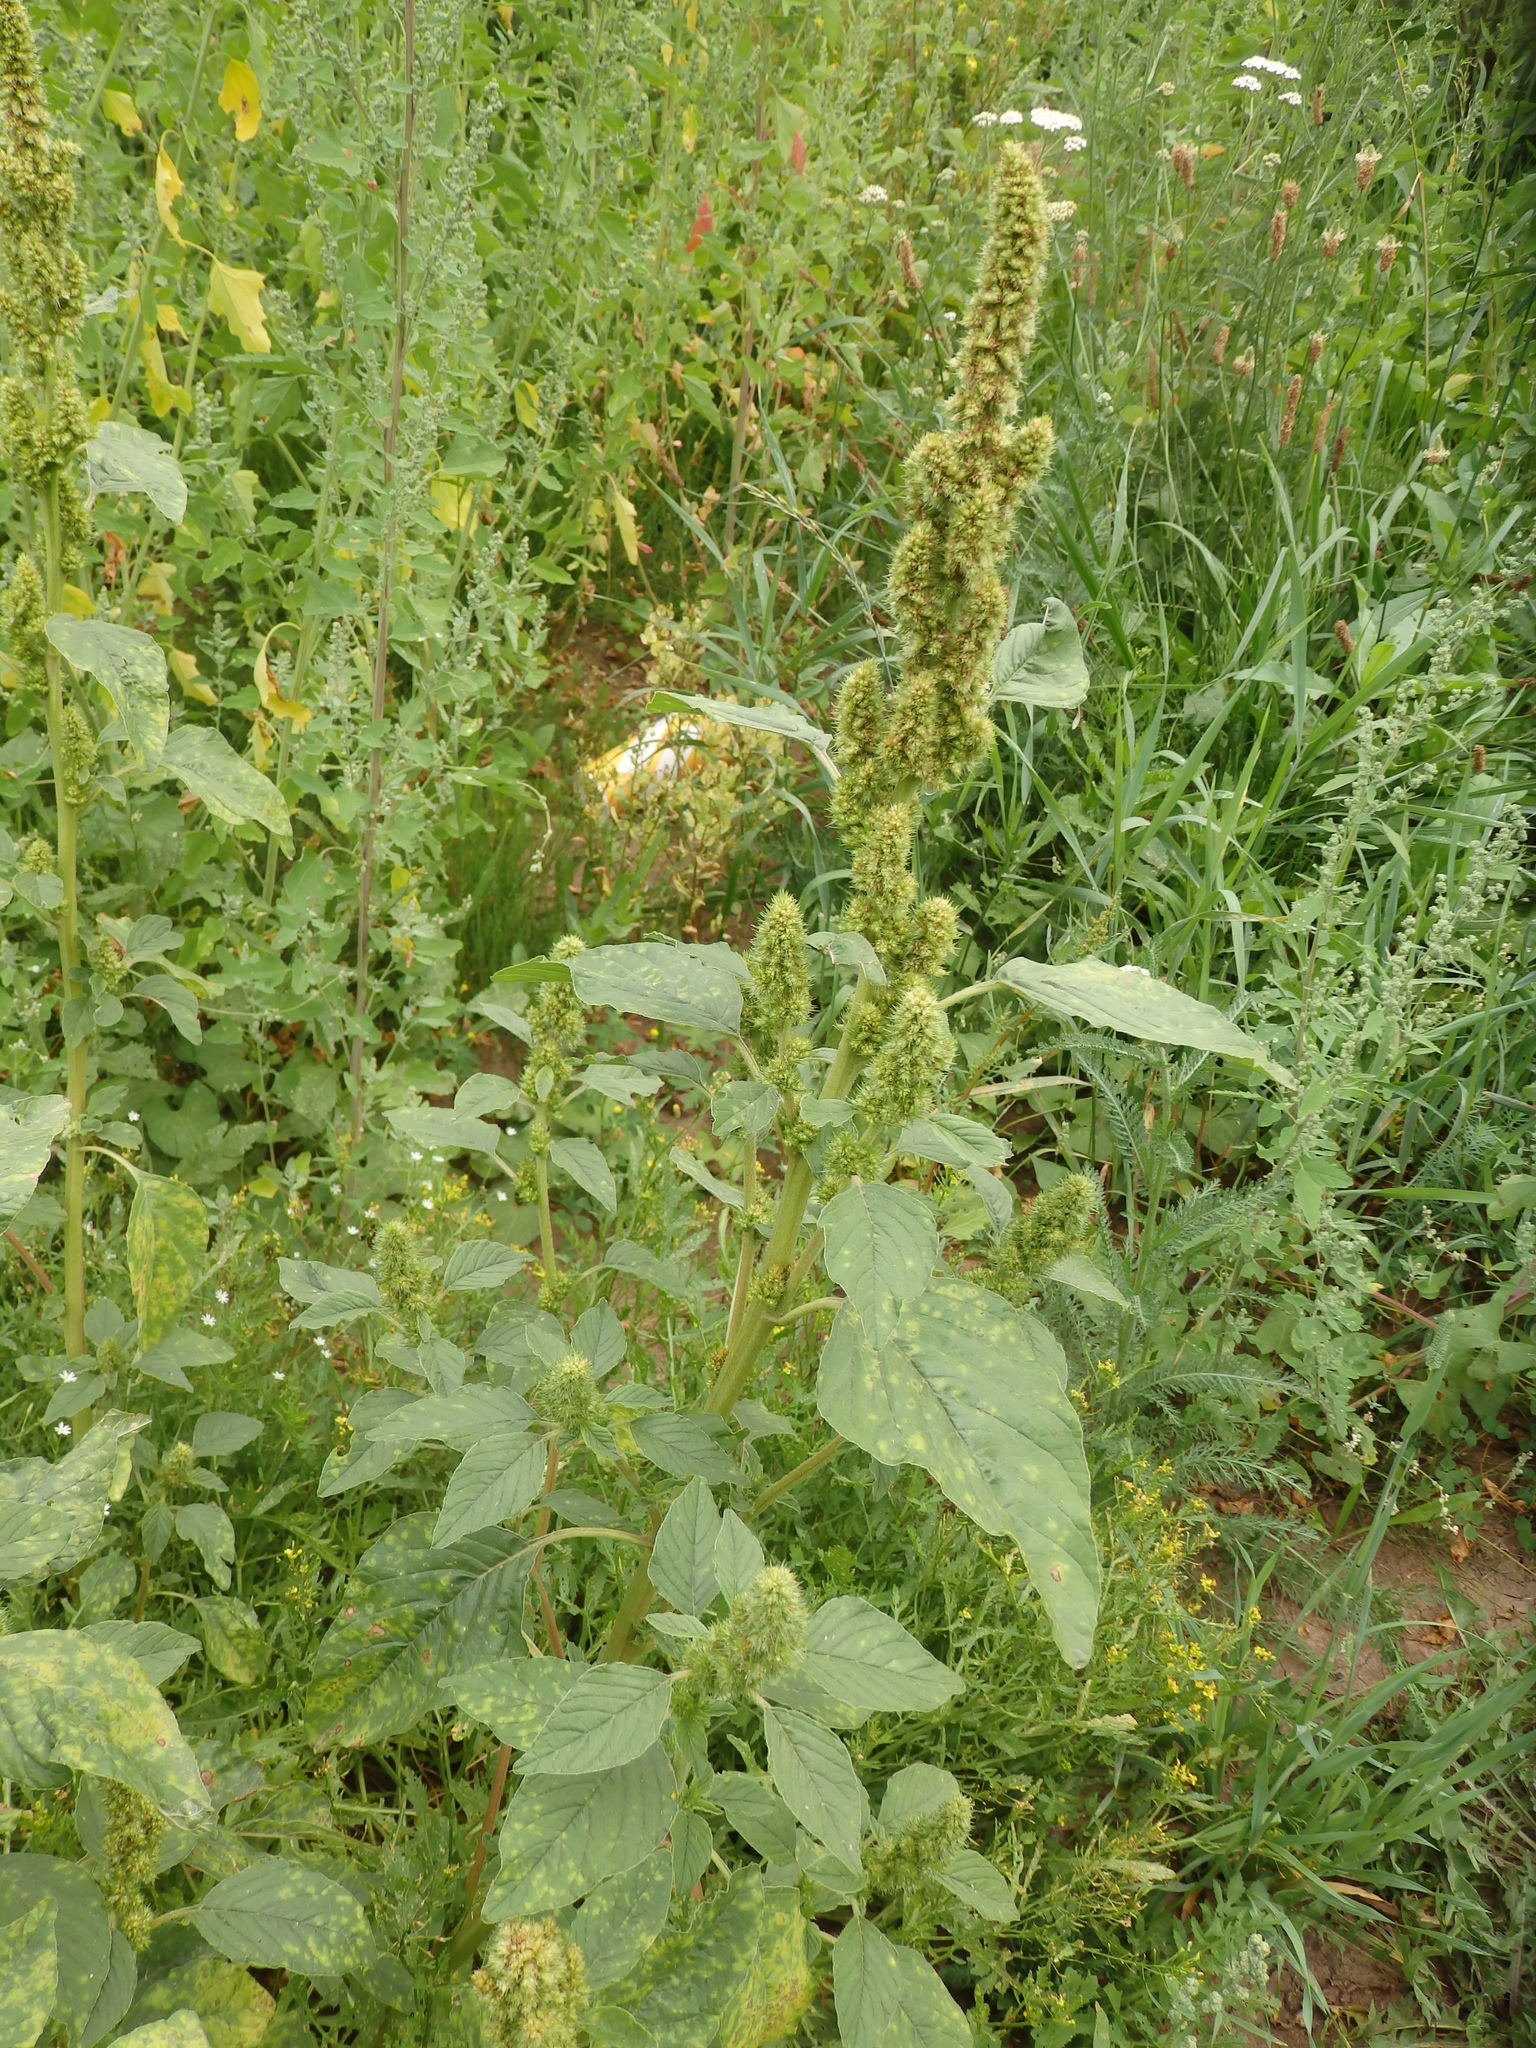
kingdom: Plantae
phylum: Tracheophyta
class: Magnoliopsida
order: Caryophyllales
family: Amaranthaceae
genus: Amaranthus
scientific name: Amaranthus retroflexus
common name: Redroot amaranth
